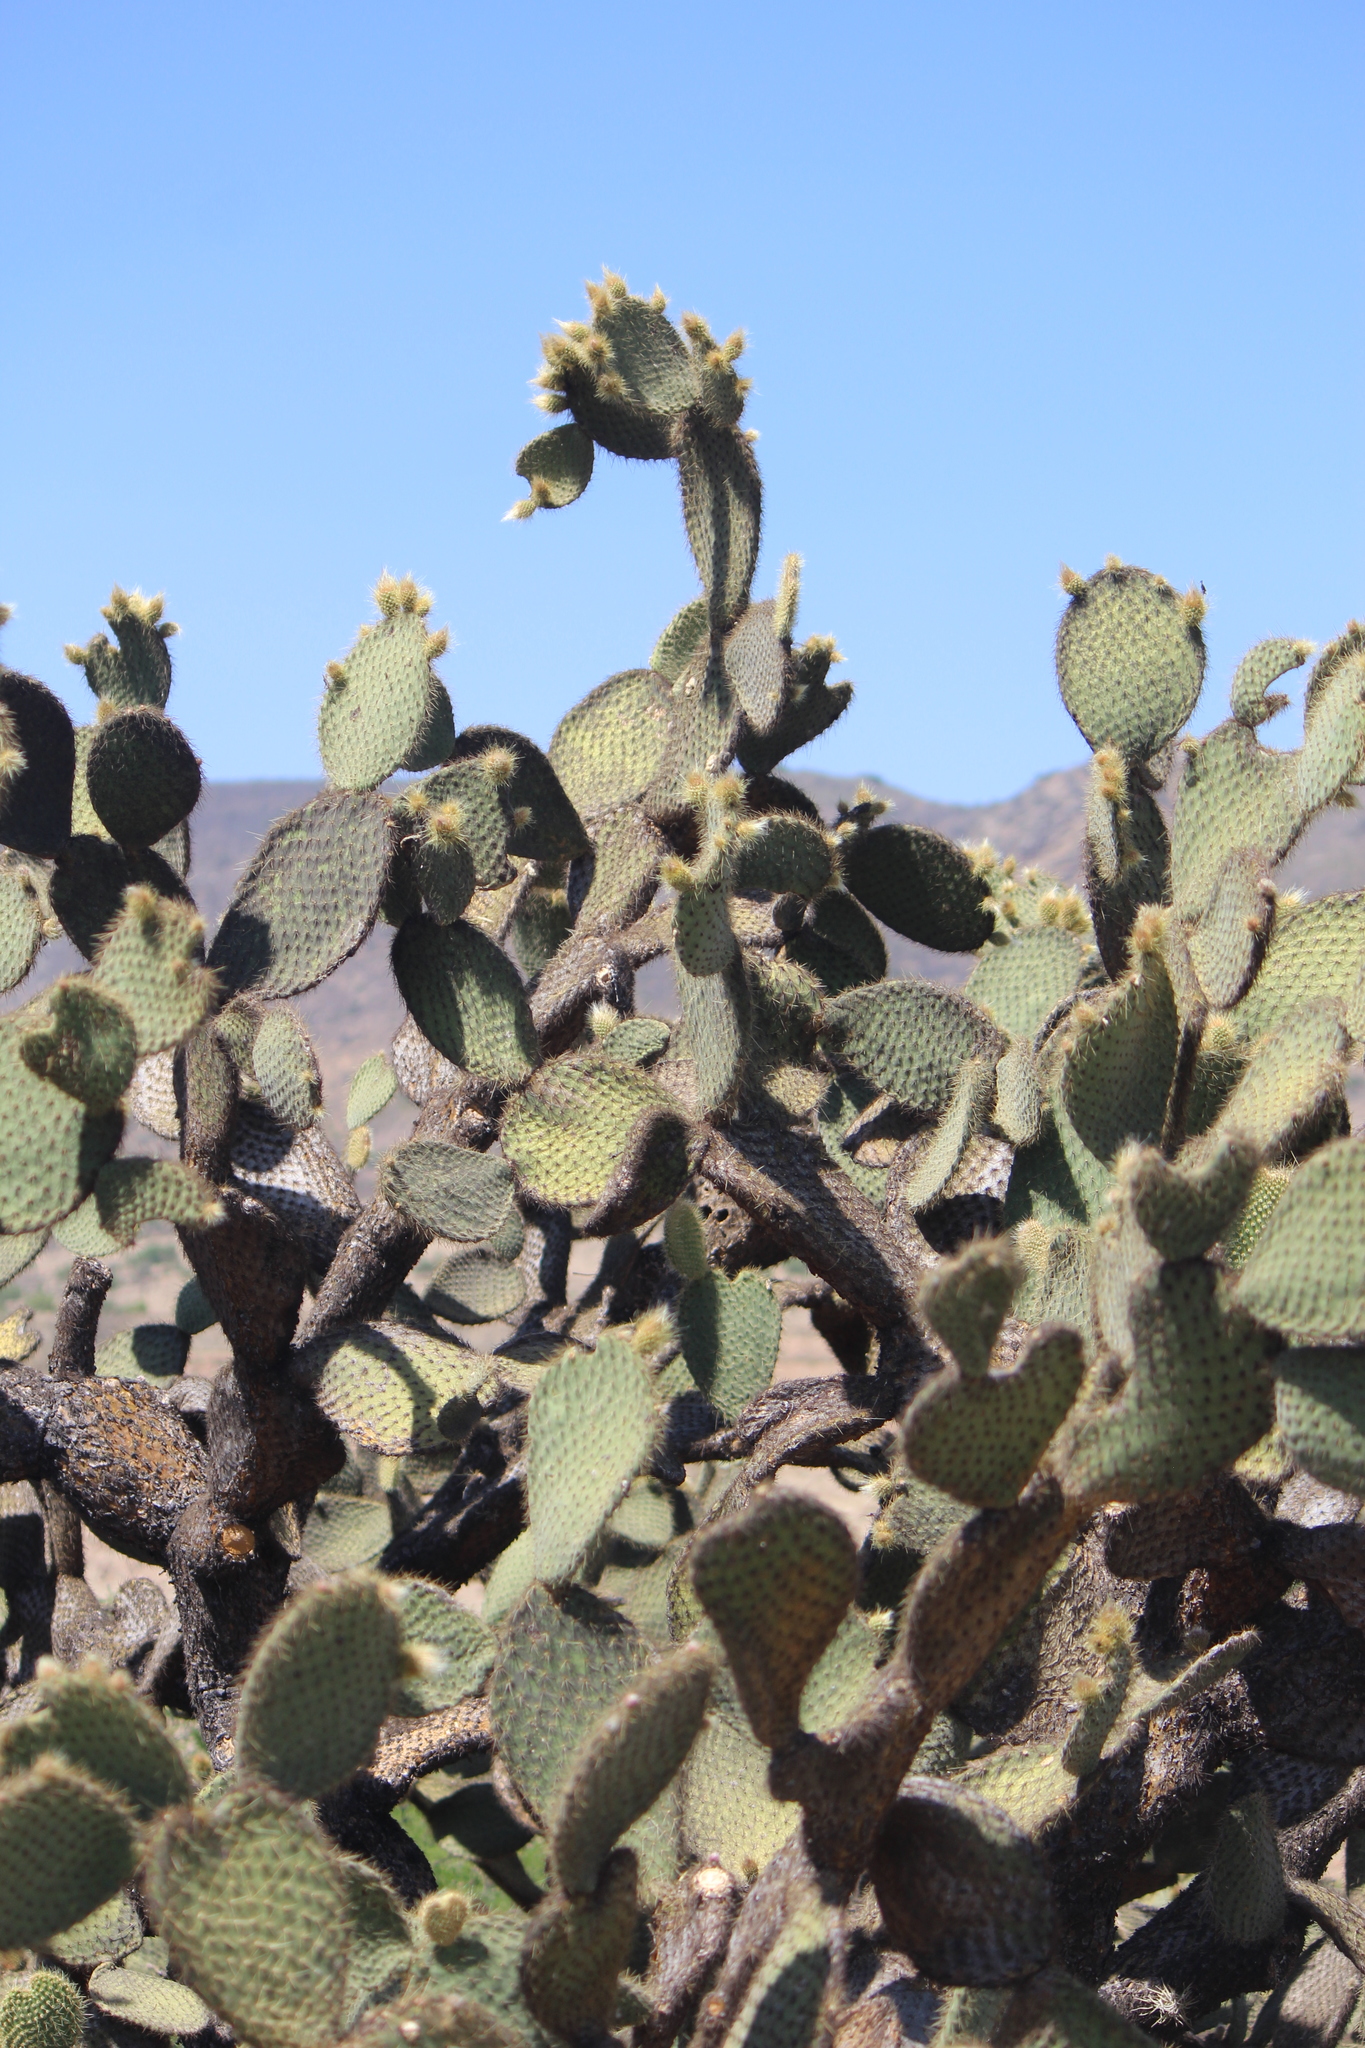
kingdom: Plantae
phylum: Tracheophyta
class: Magnoliopsida
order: Caryophyllales
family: Cactaceae
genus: Opuntia
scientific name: Opuntia leucotricha
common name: Arborescent pricklypear
